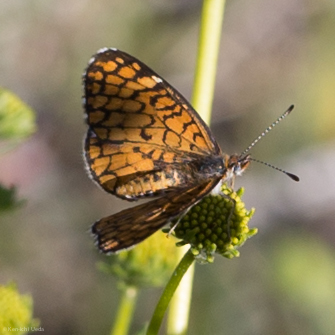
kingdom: Animalia
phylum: Arthropoda
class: Insecta
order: Lepidoptera
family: Nymphalidae
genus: Dymasia
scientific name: Dymasia dymas
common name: Tiny checkerspot
